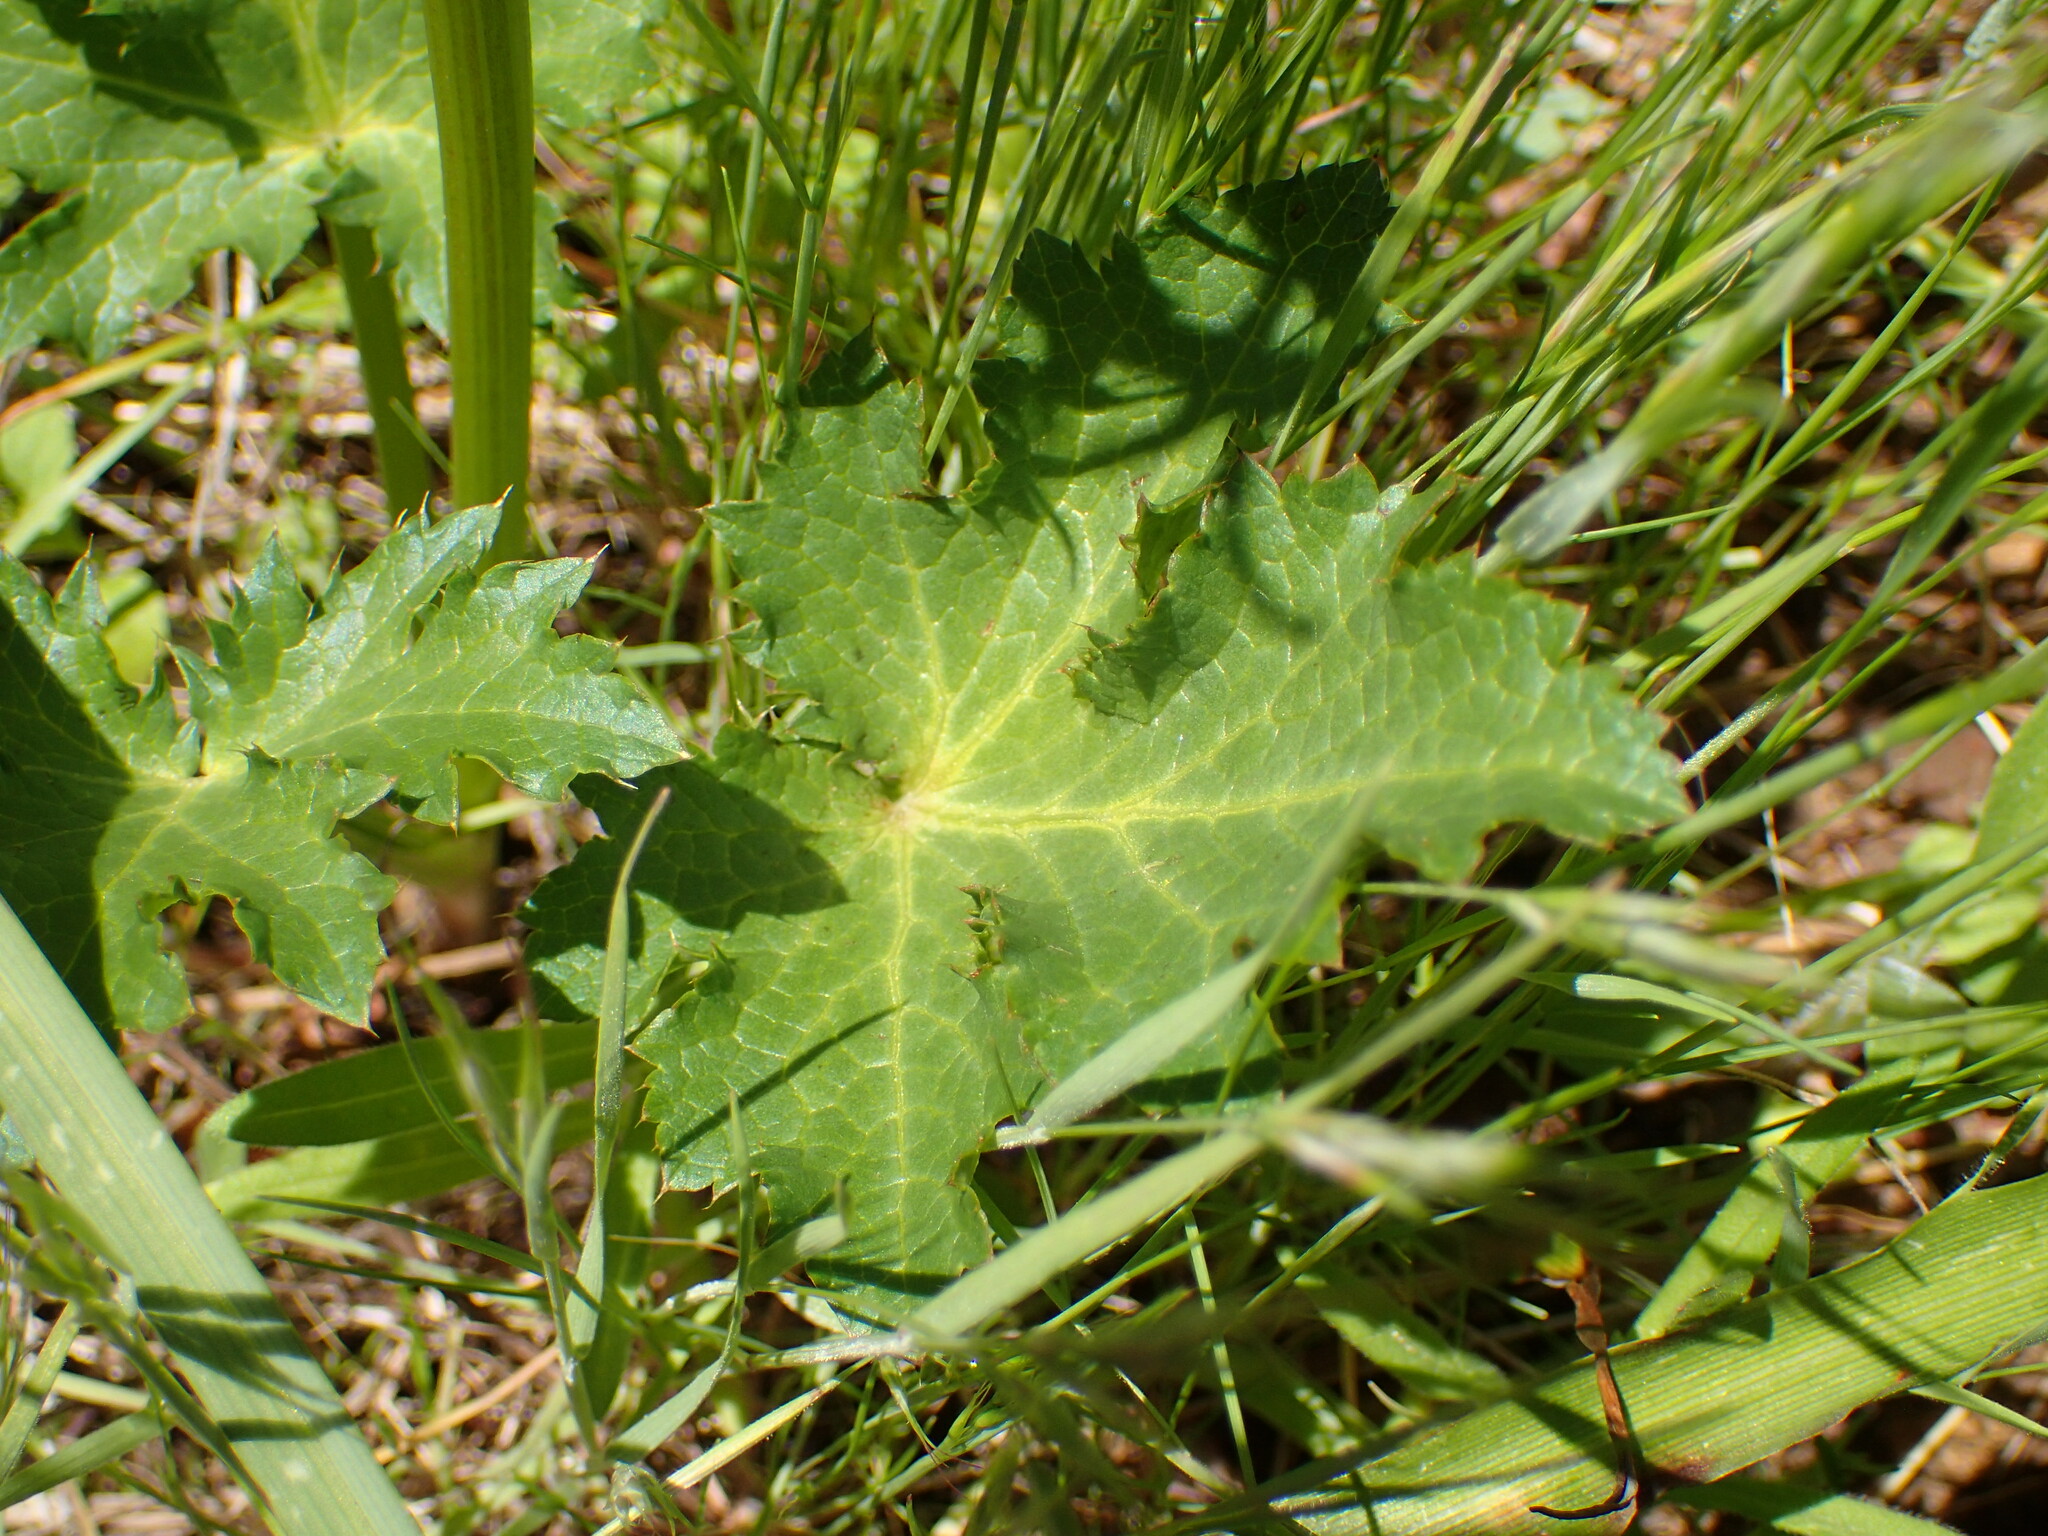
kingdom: Plantae
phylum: Tracheophyta
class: Magnoliopsida
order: Apiales
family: Apiaceae
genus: Sanicula
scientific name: Sanicula crassicaulis
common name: Western snakeroot
